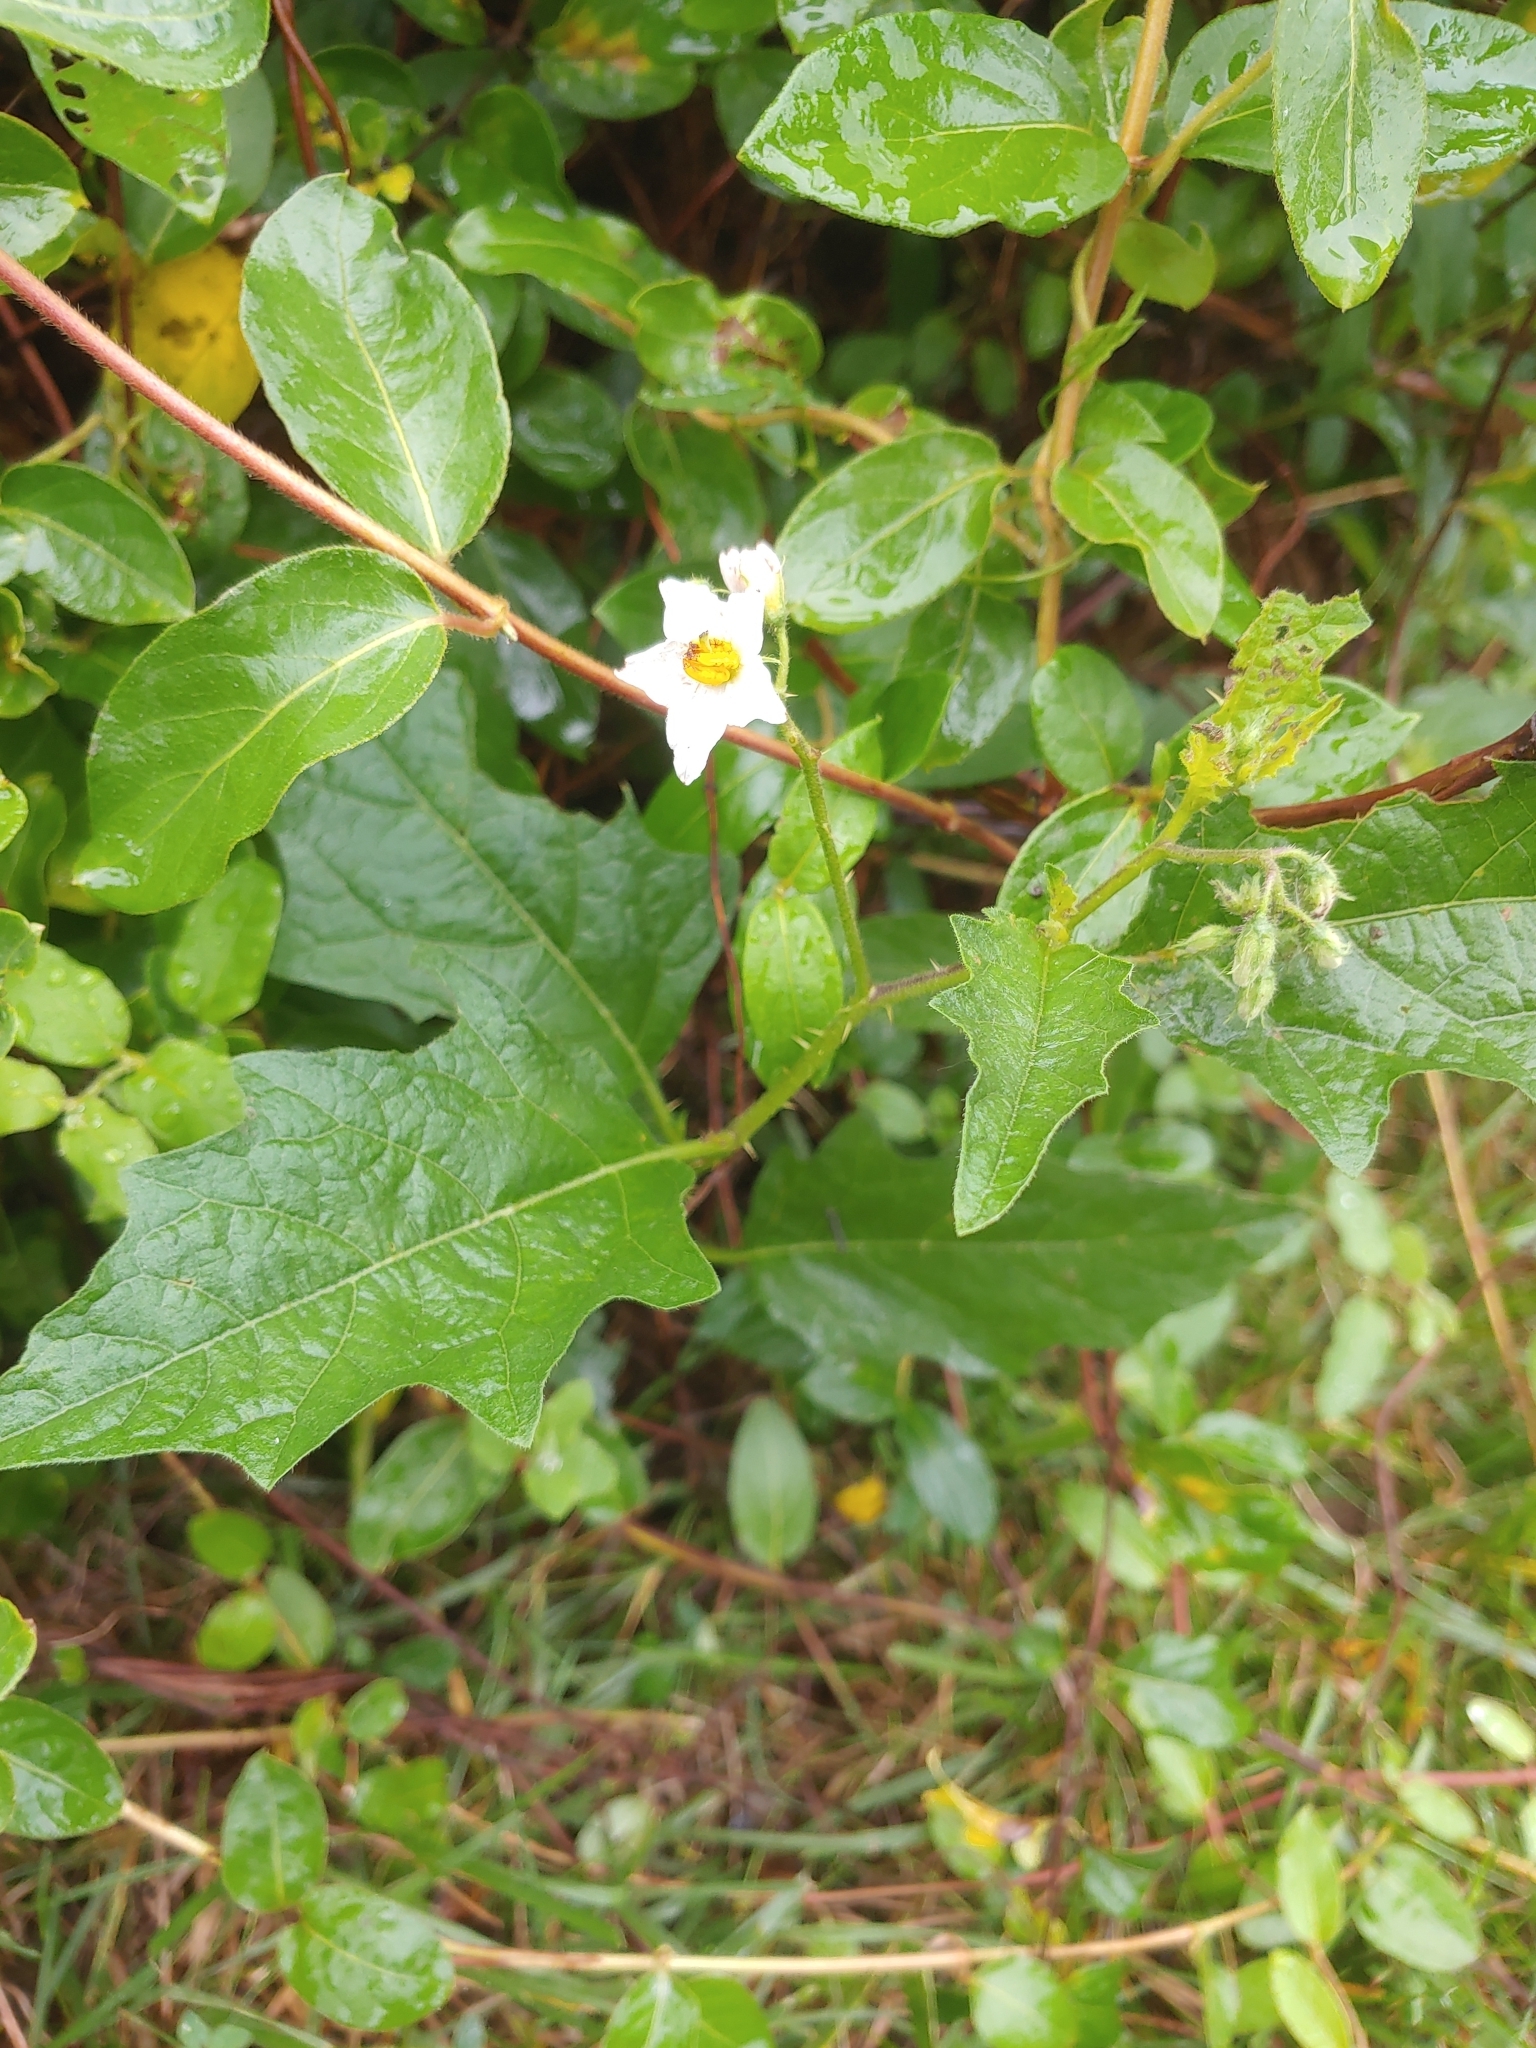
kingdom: Plantae
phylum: Tracheophyta
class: Magnoliopsida
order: Solanales
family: Solanaceae
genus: Solanum
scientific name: Solanum carolinense
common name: Horse-nettle
